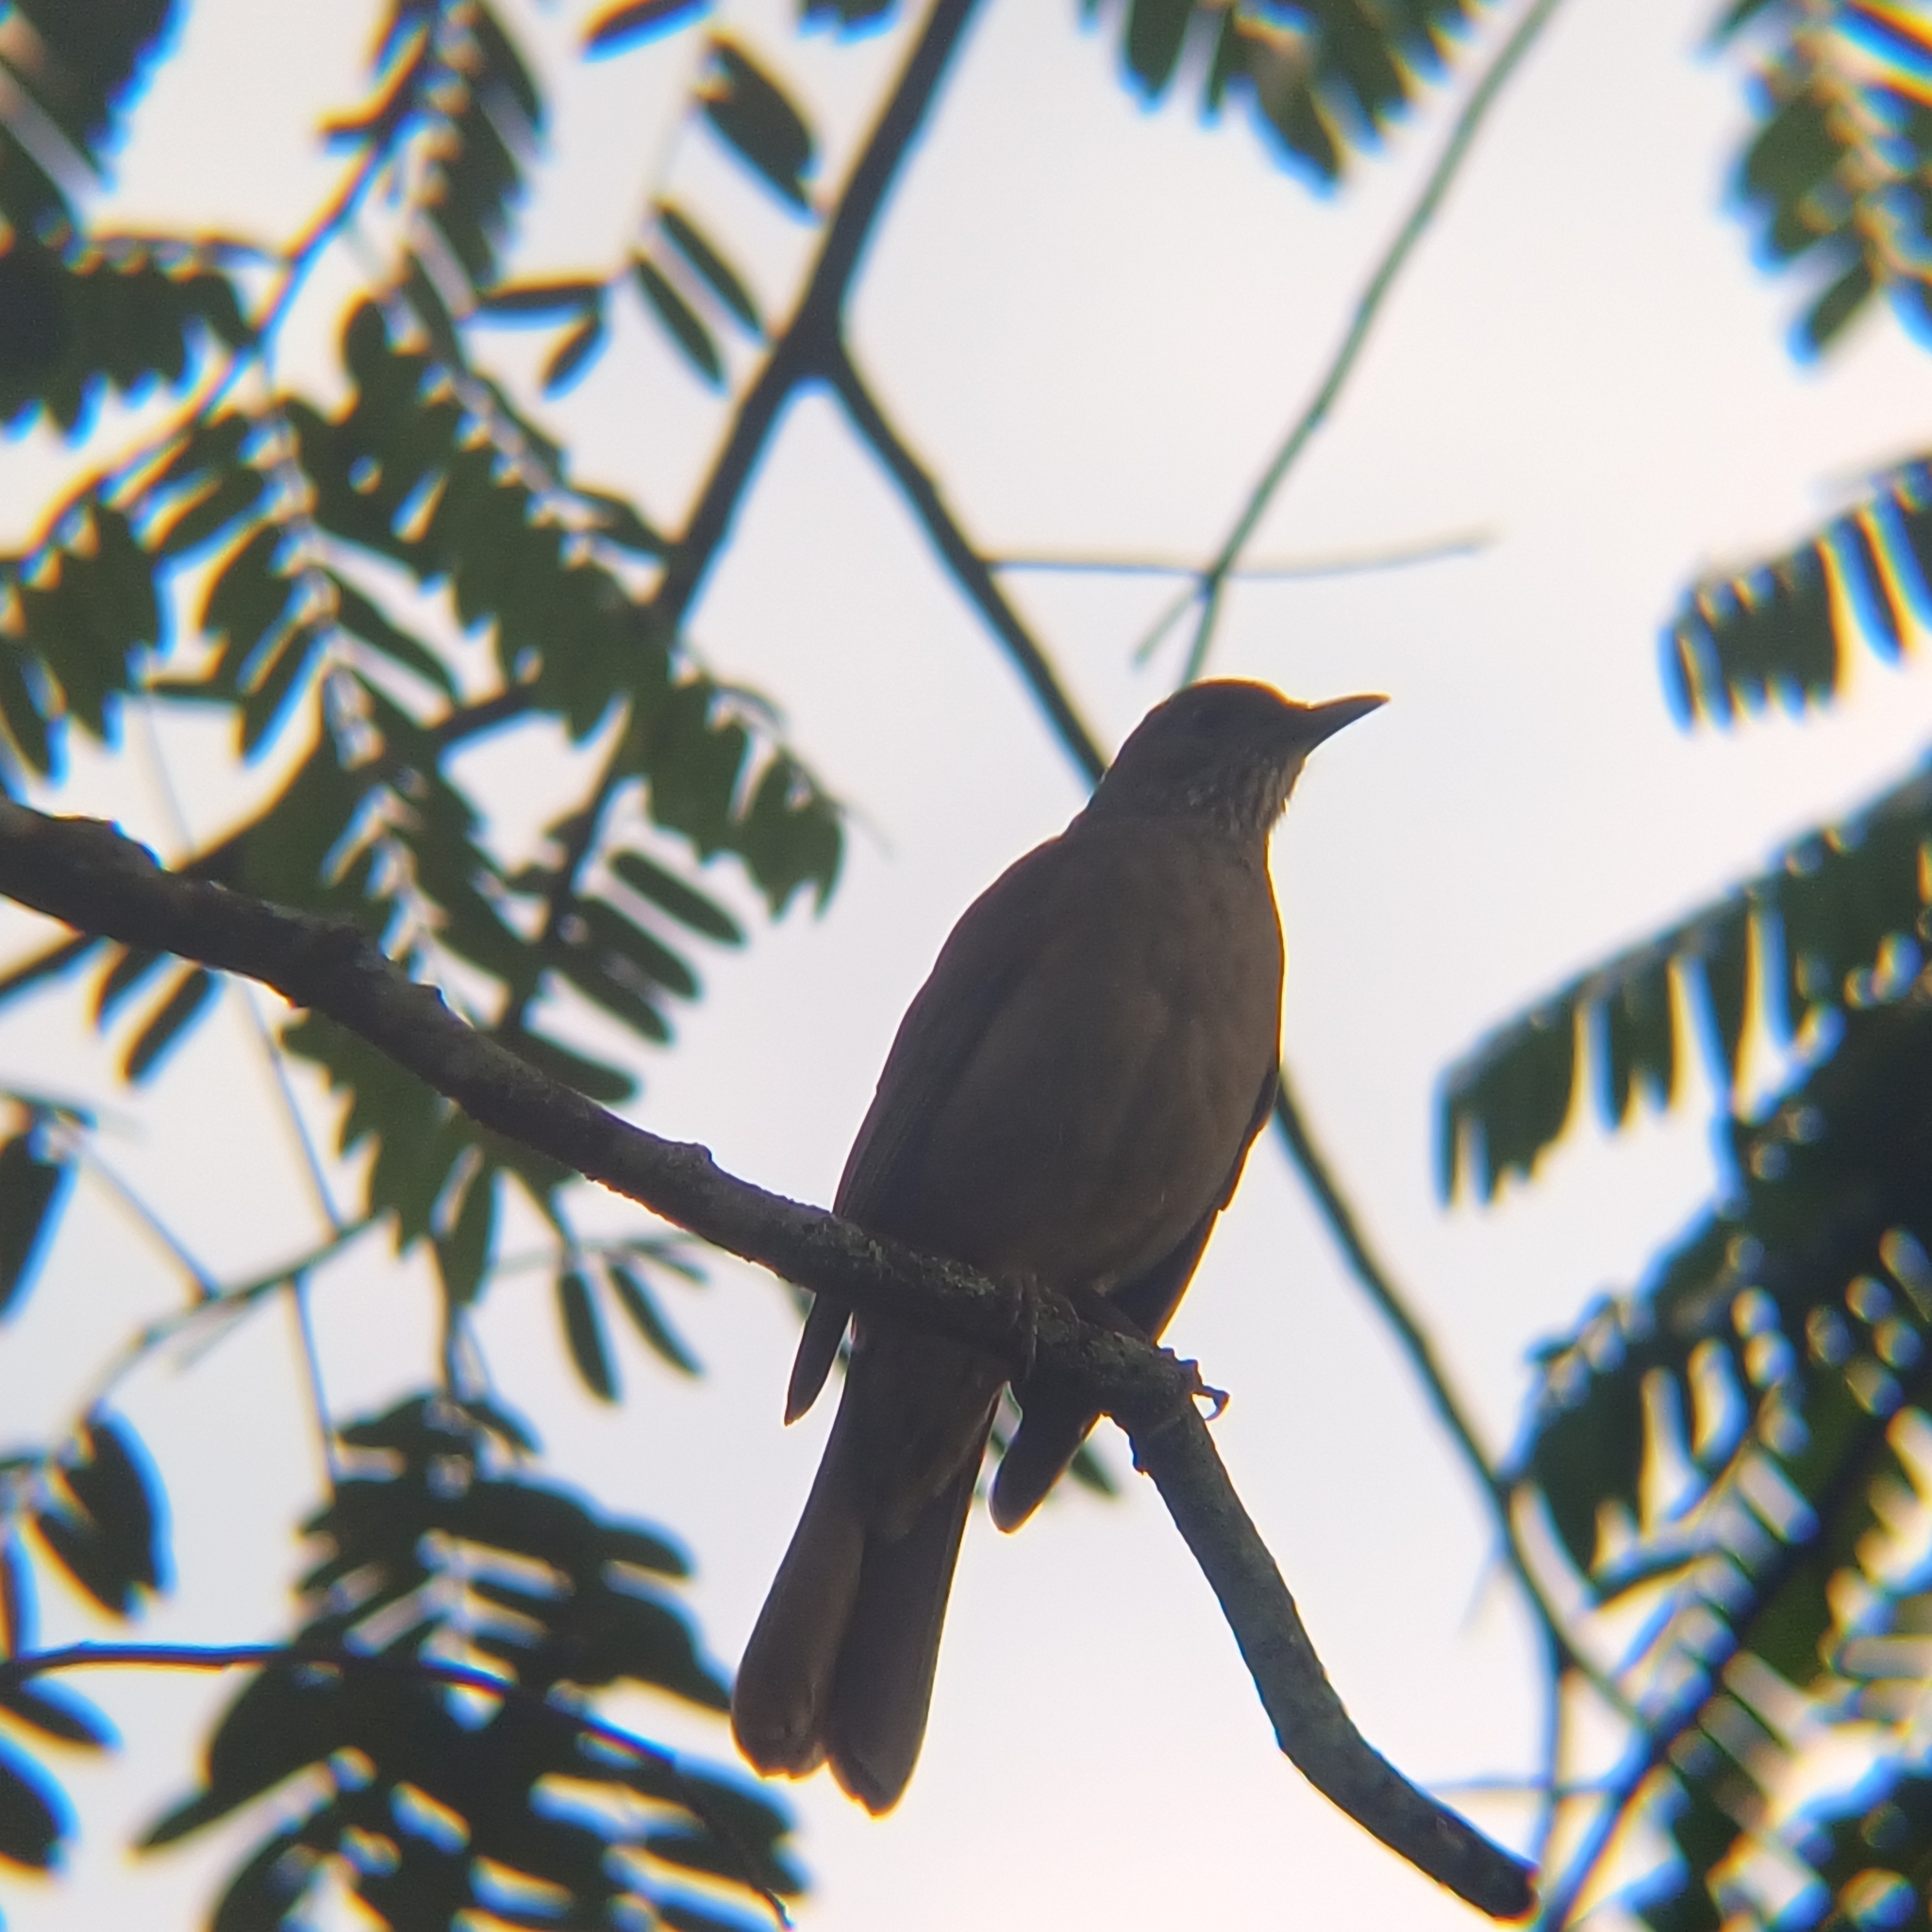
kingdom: Animalia
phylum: Chordata
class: Aves
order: Passeriformes
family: Turdidae
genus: Turdus
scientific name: Turdus leucomelas
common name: Pale-breasted thrush
